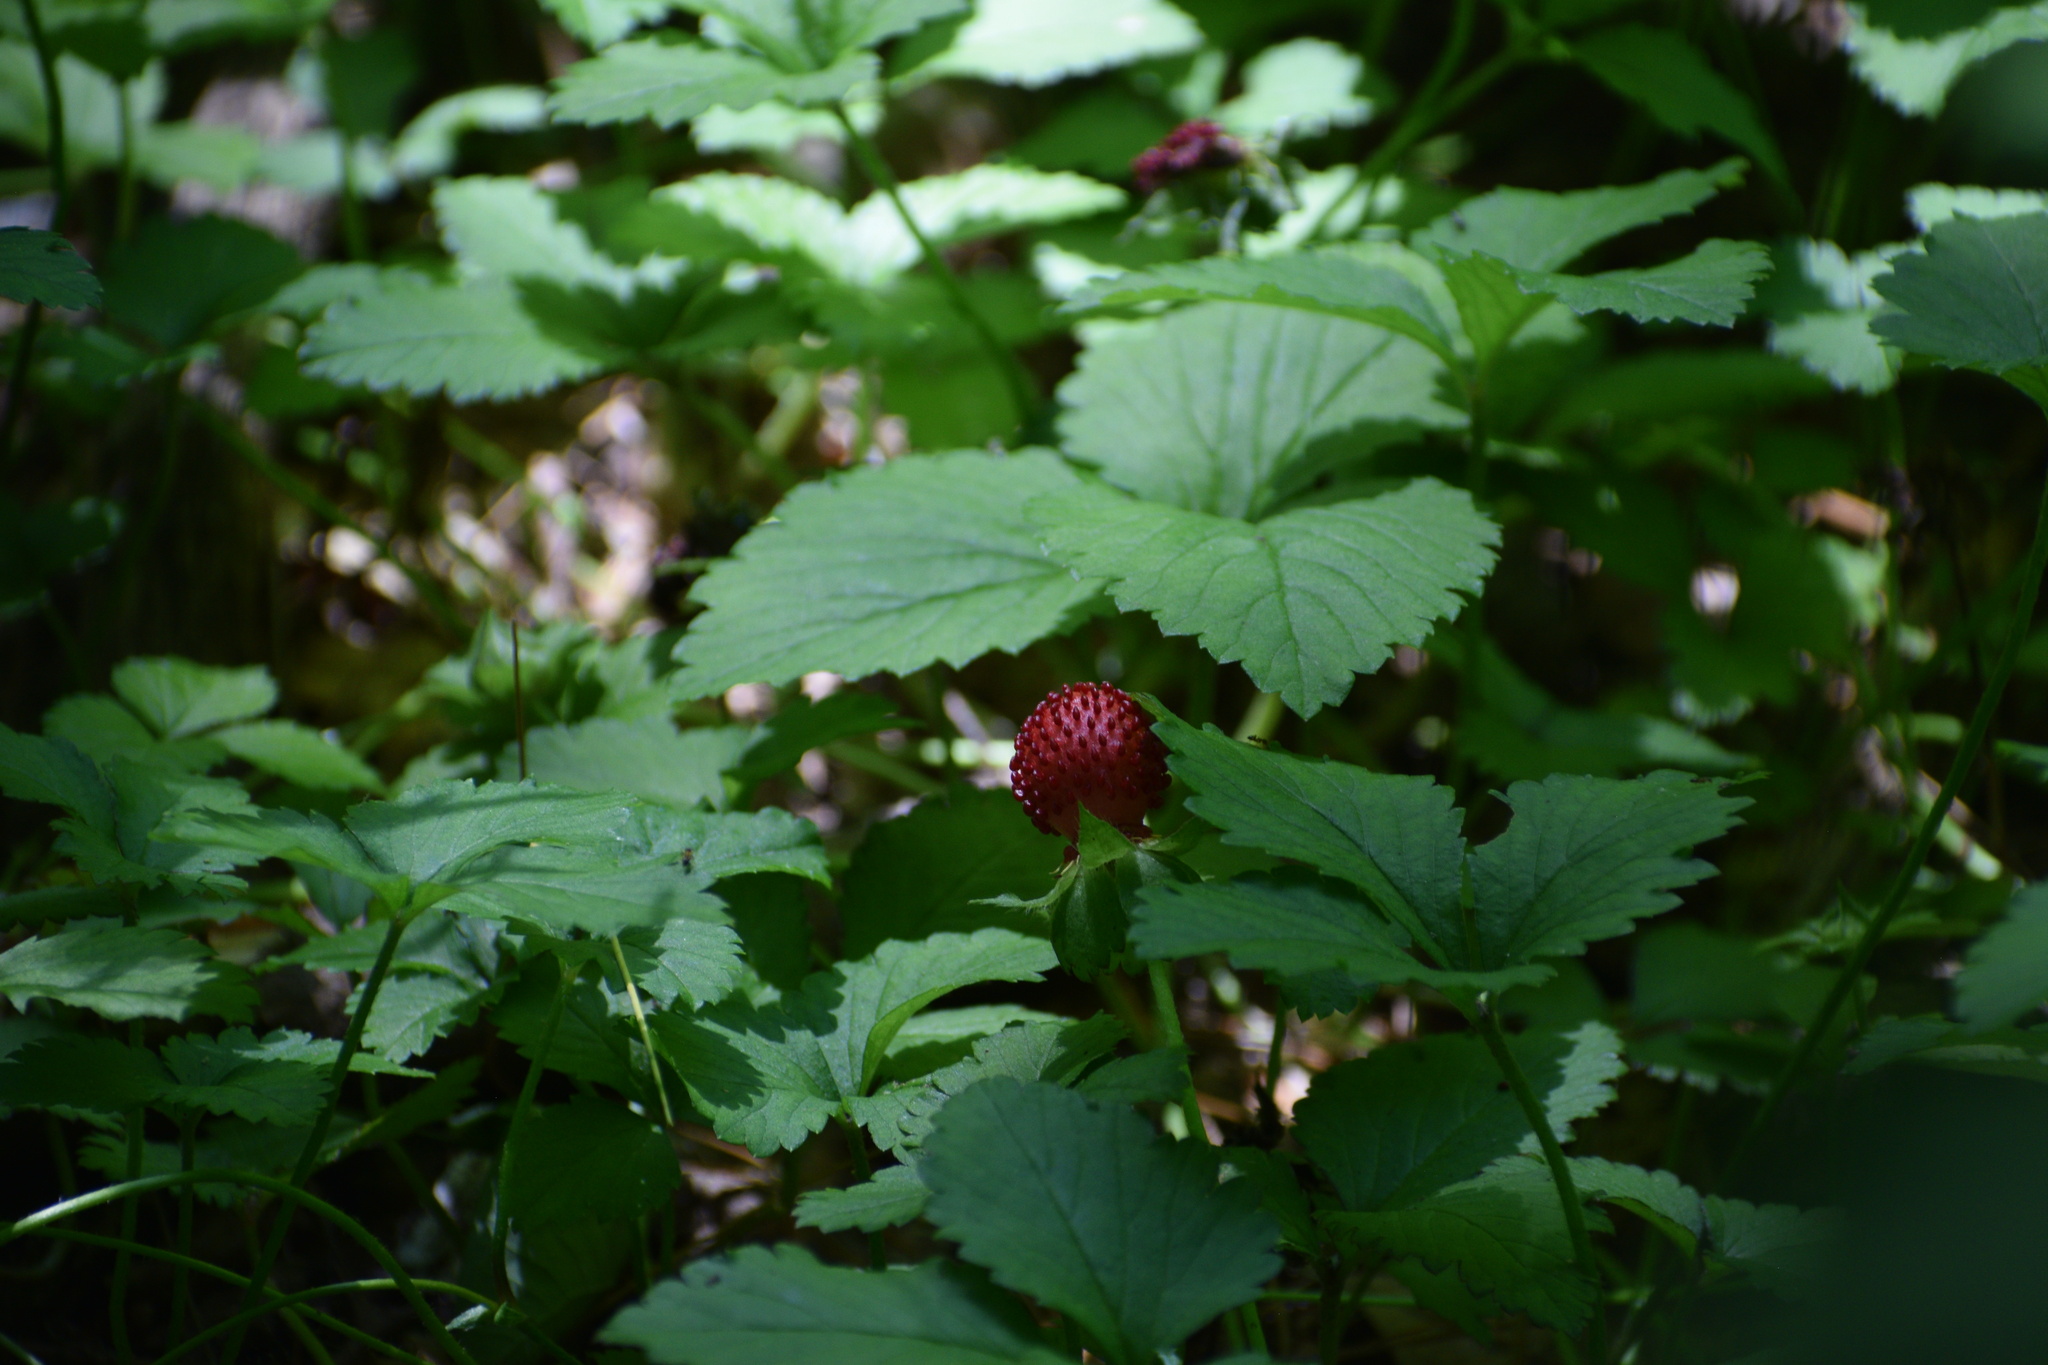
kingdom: Plantae
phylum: Tracheophyta
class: Magnoliopsida
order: Rosales
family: Rosaceae
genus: Potentilla
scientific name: Potentilla indica
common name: Yellow-flowered strawberry
